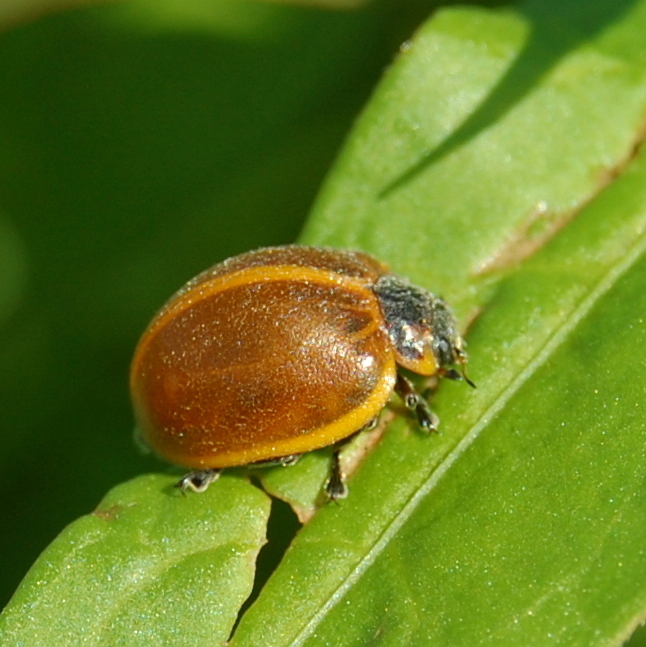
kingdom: Animalia
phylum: Arthropoda
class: Insecta
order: Coleoptera
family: Coccinellidae
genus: Epilachna
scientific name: Epilachna
